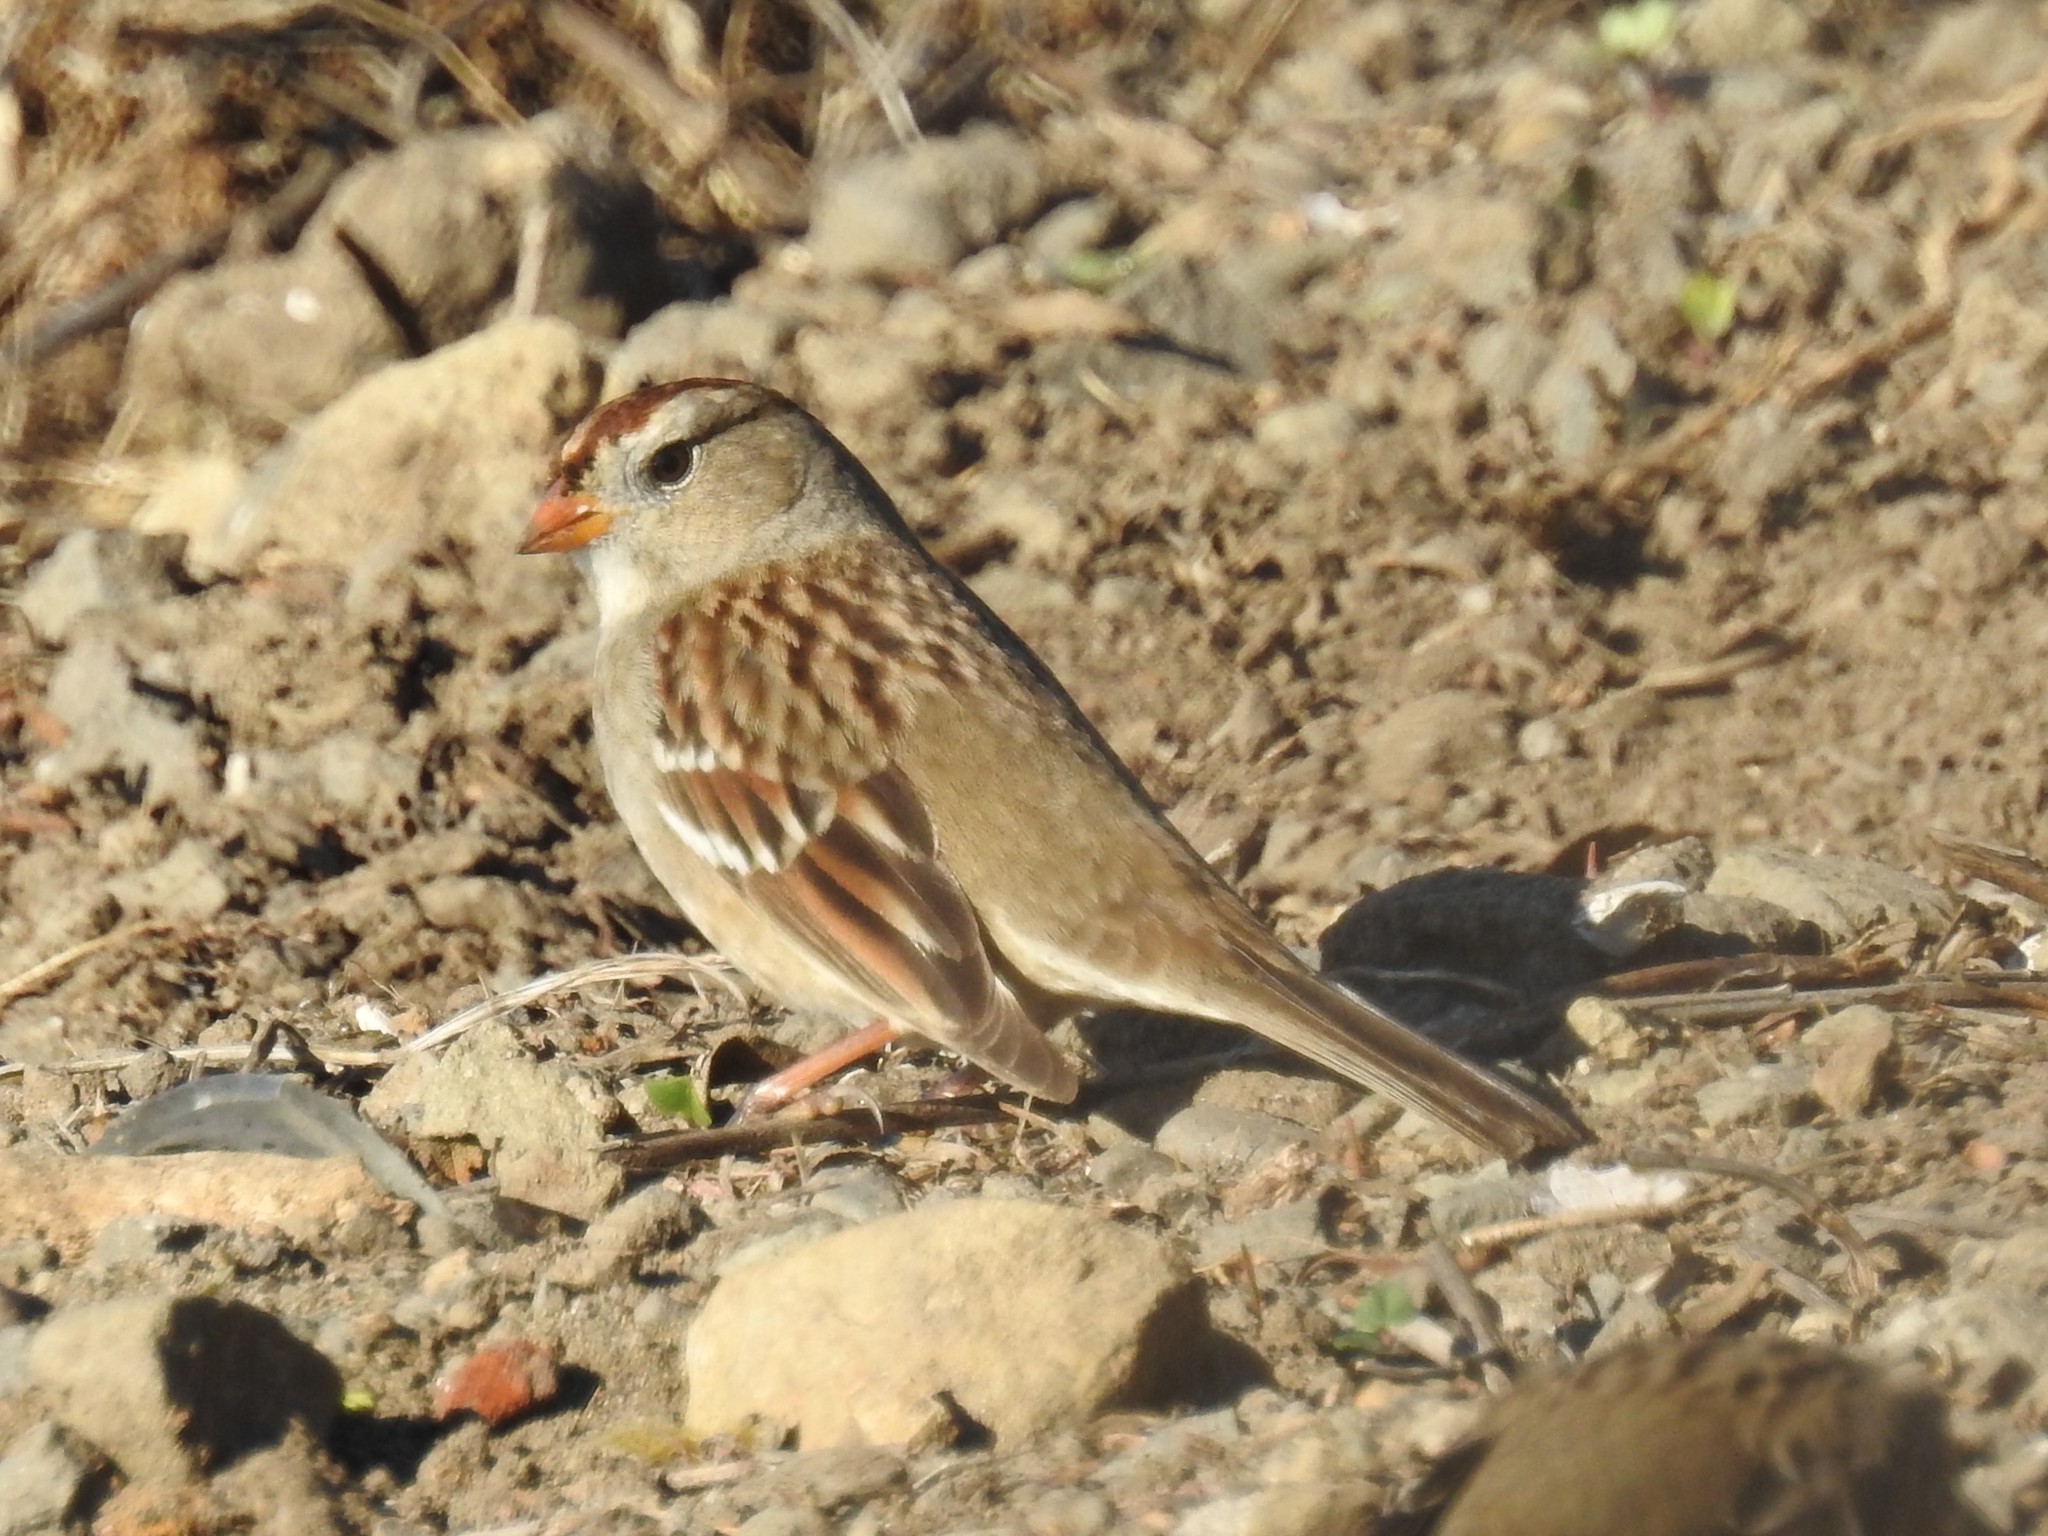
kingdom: Animalia
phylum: Chordata
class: Aves
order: Passeriformes
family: Passerellidae
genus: Zonotrichia
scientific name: Zonotrichia leucophrys
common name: White-crowned sparrow
